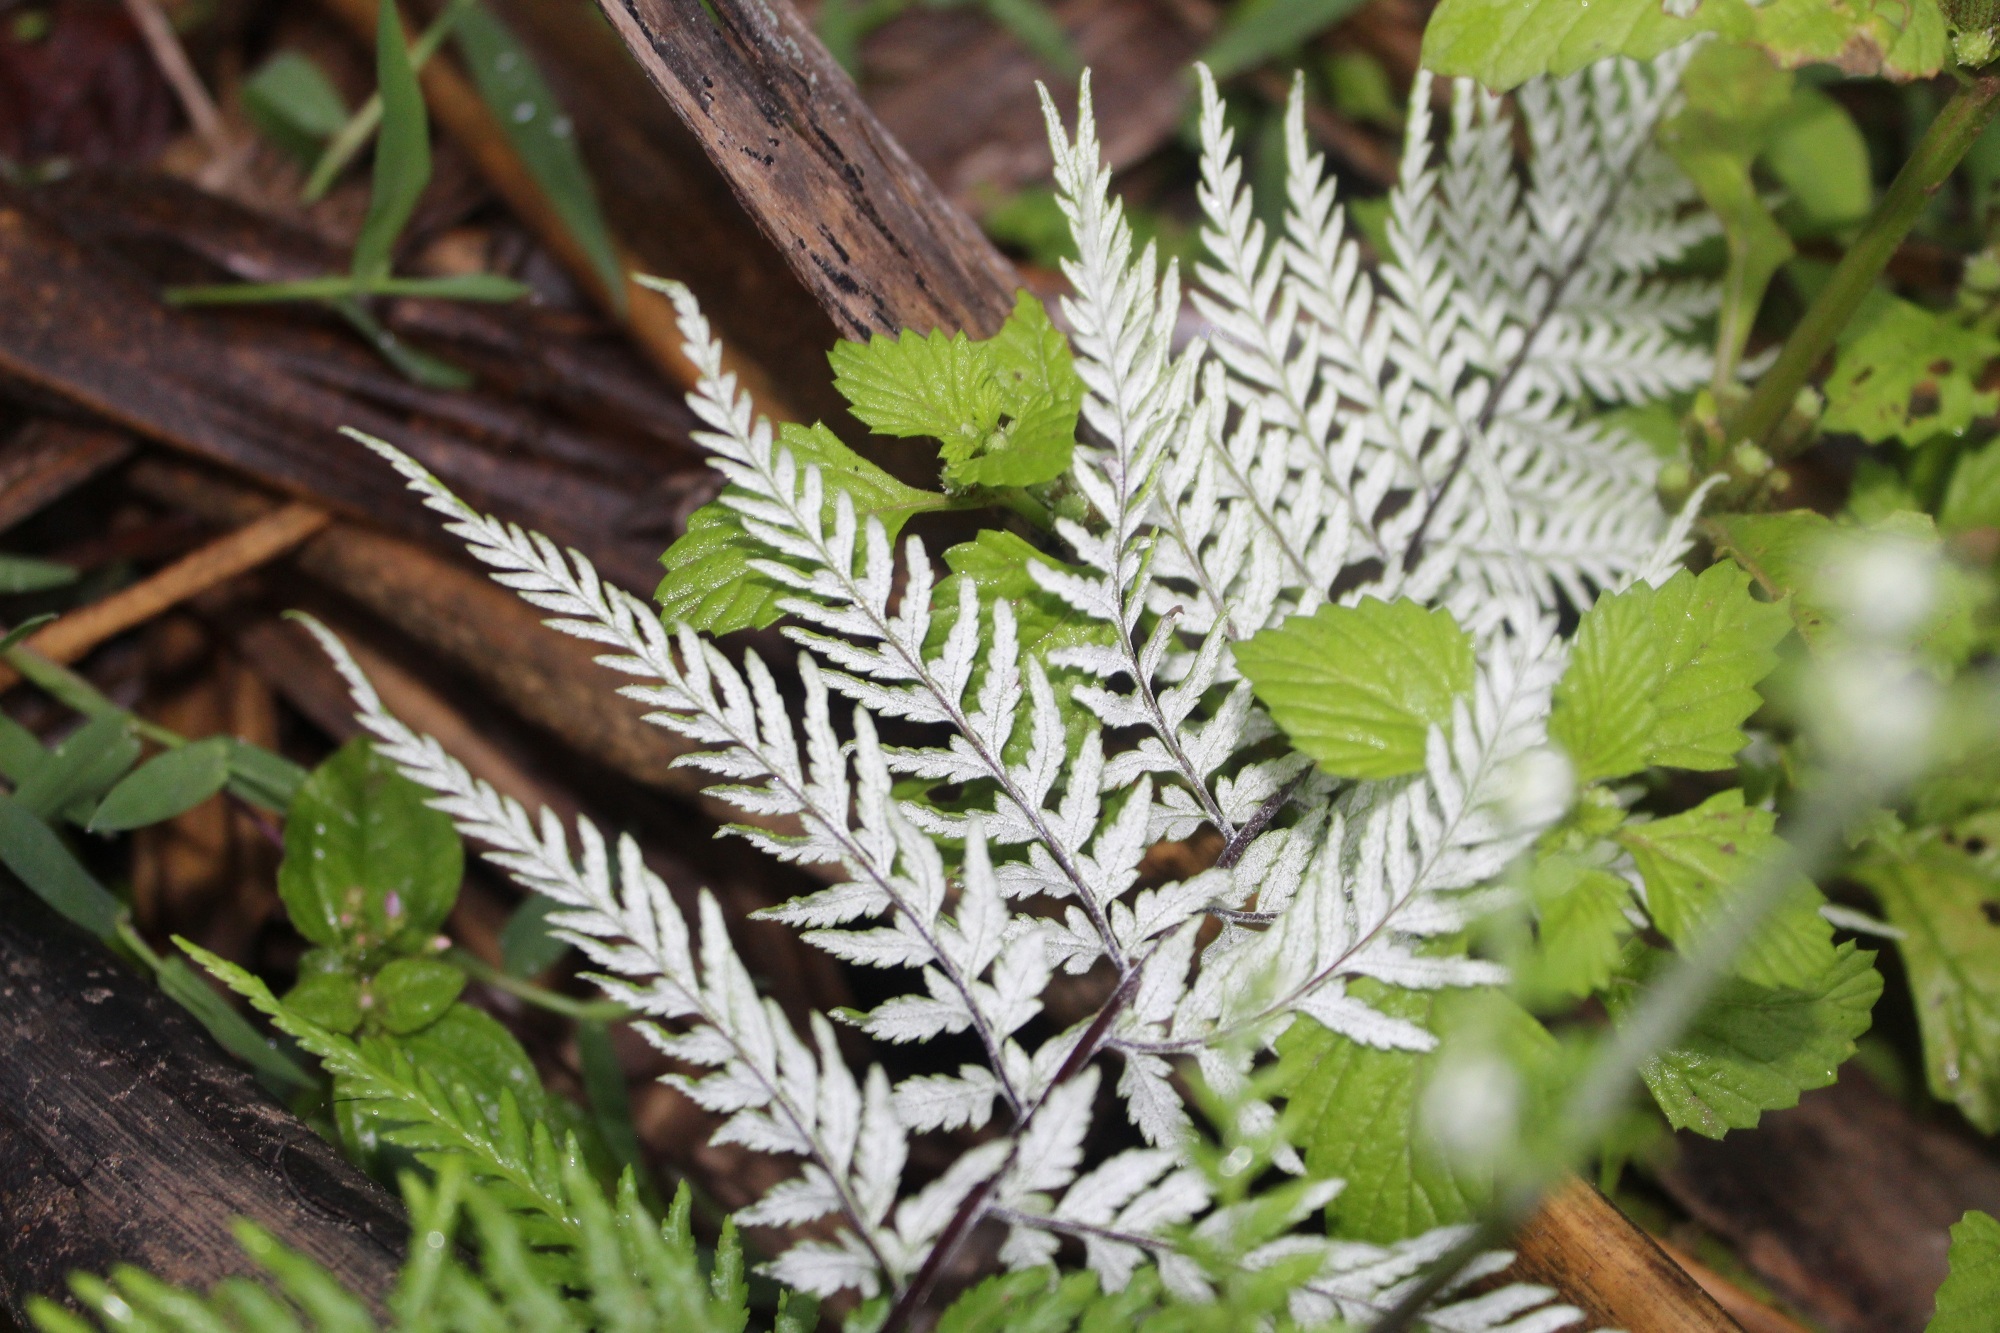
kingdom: Plantae
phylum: Tracheophyta
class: Polypodiopsida
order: Polypodiales
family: Pteridaceae
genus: Pityrogramma
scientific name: Pityrogramma calomelanos
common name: Dixie silverback fern
